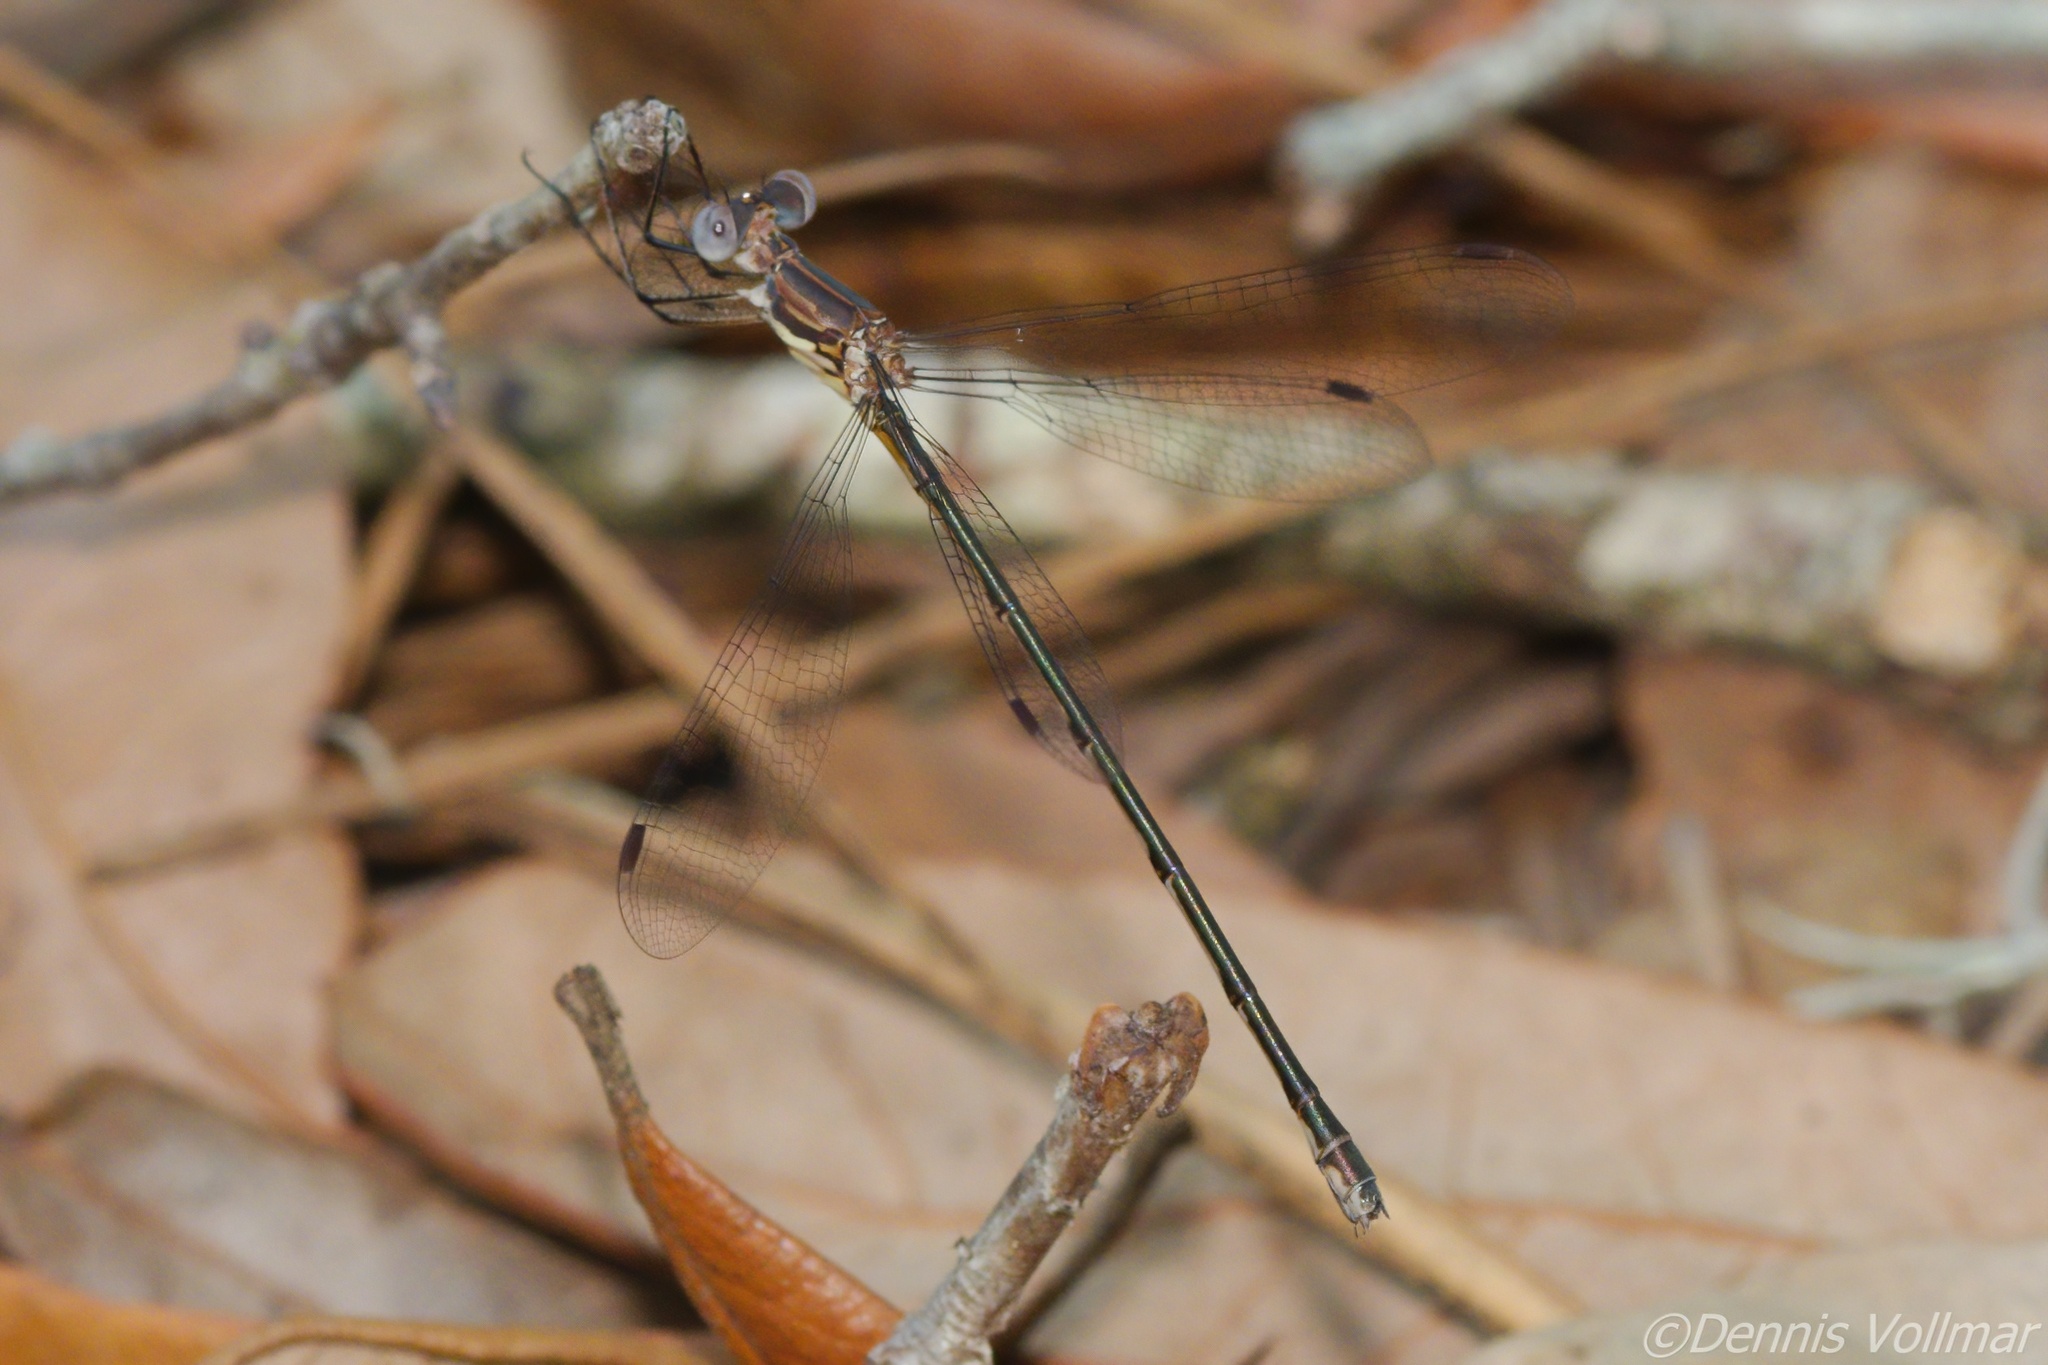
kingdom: Animalia
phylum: Arthropoda
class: Insecta
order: Odonata
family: Lestidae
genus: Lestes
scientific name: Lestes vidua
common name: Carolina spreadwing
